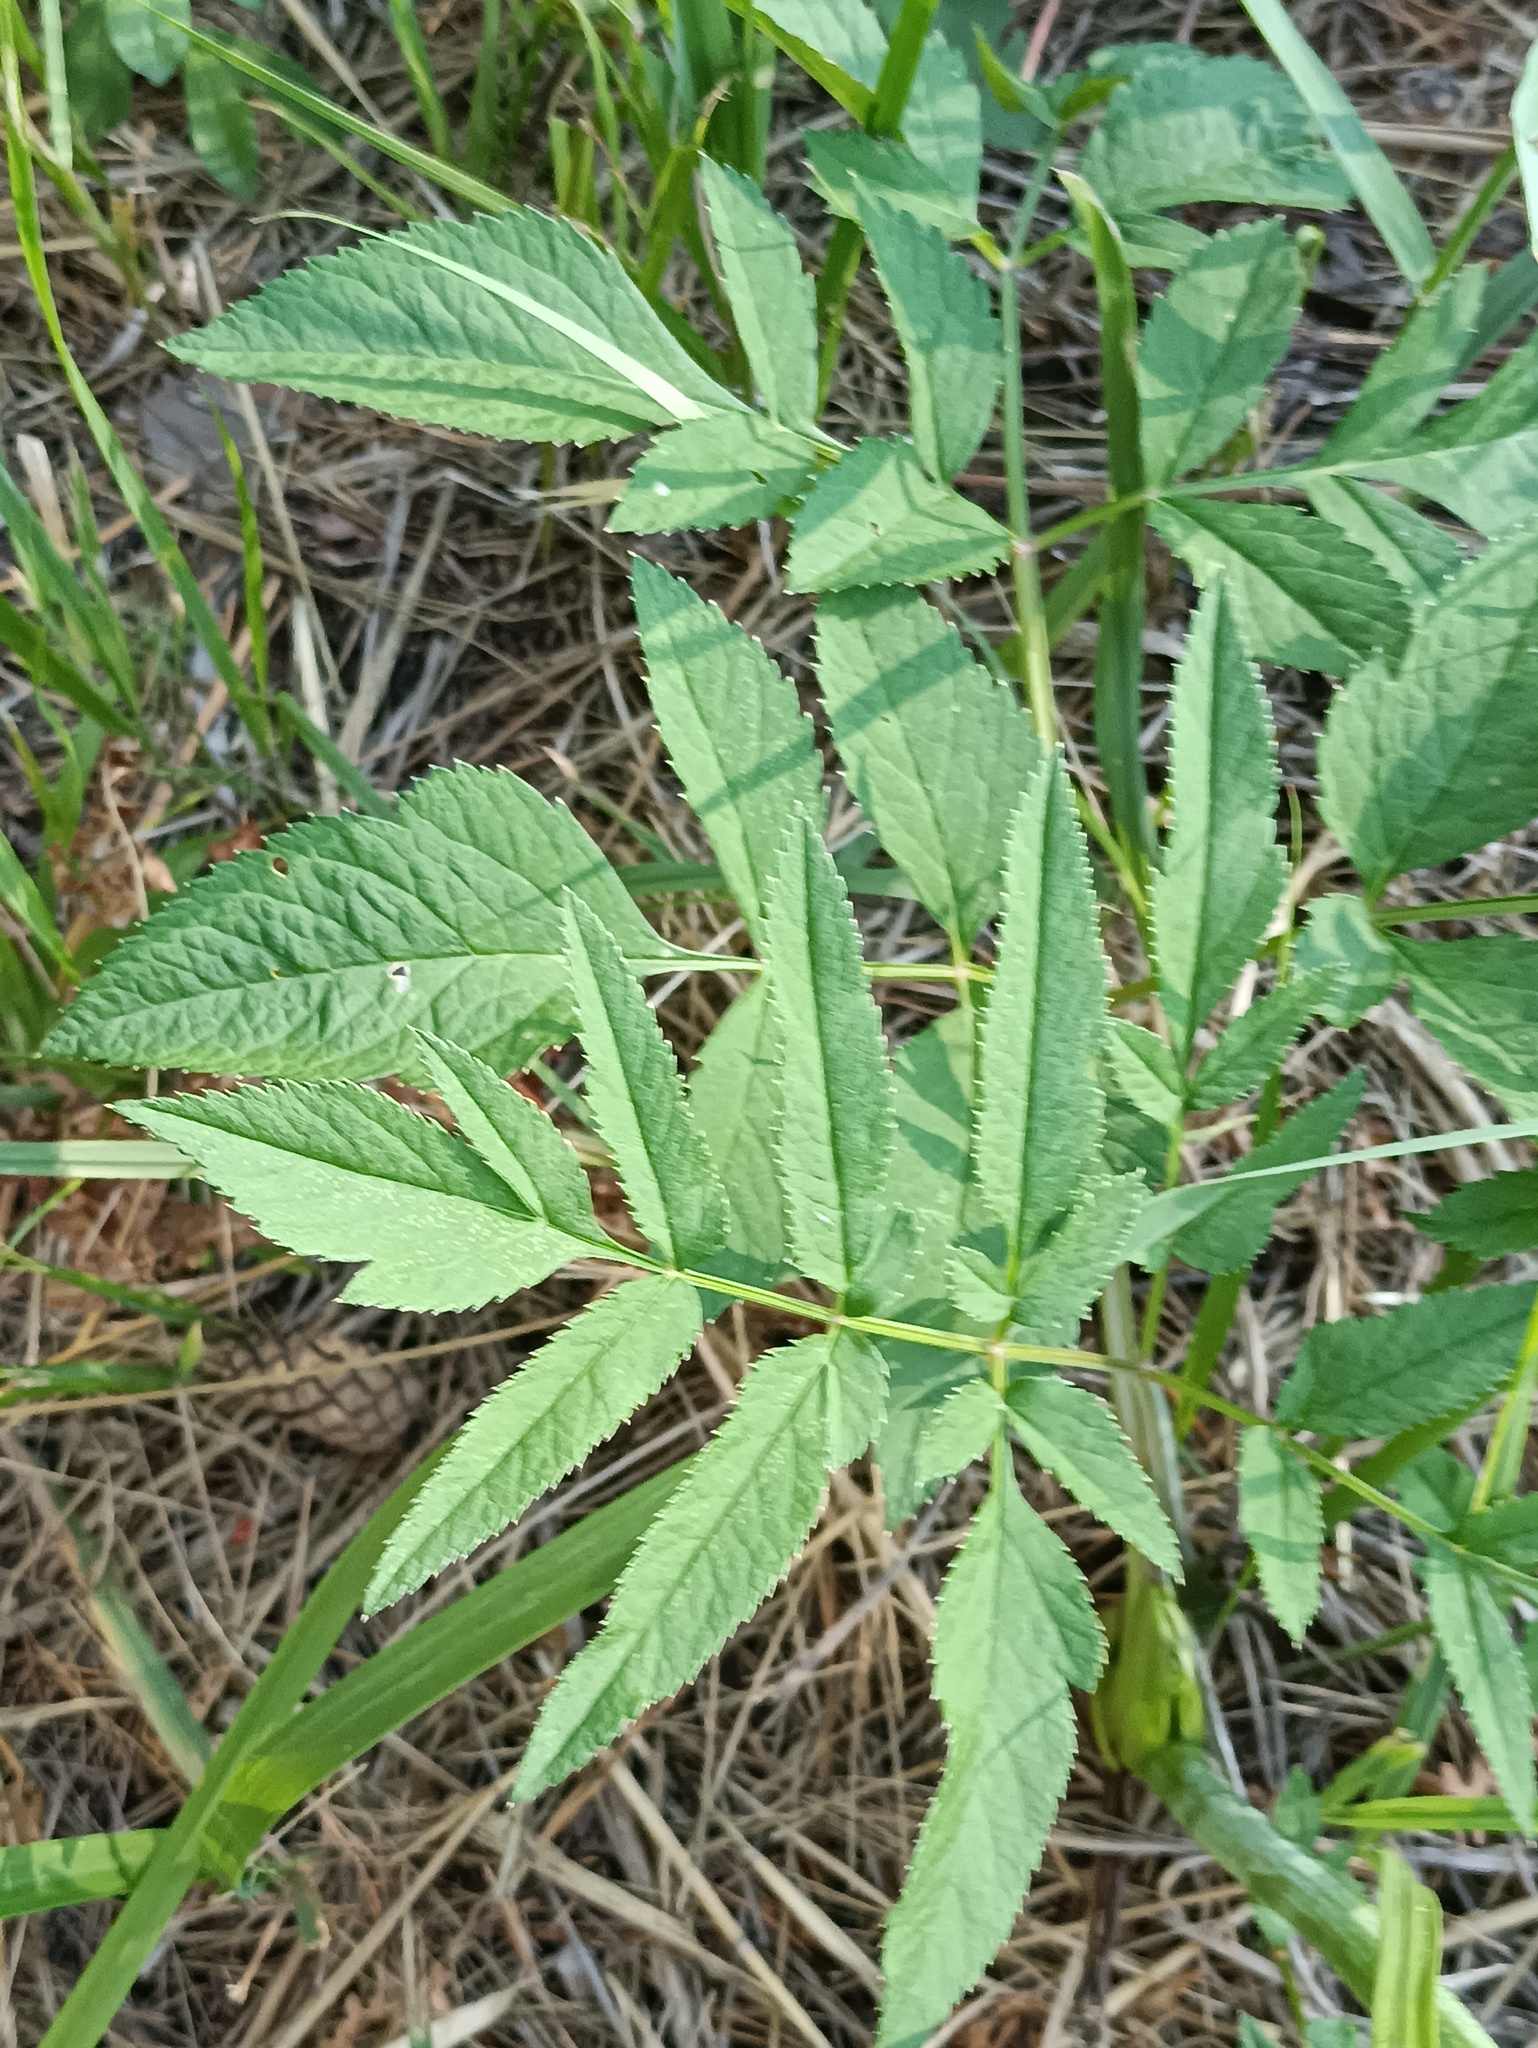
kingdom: Plantae
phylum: Tracheophyta
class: Magnoliopsida
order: Apiales
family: Apiaceae
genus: Angelica
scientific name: Angelica sylvestris
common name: Wild angelica
